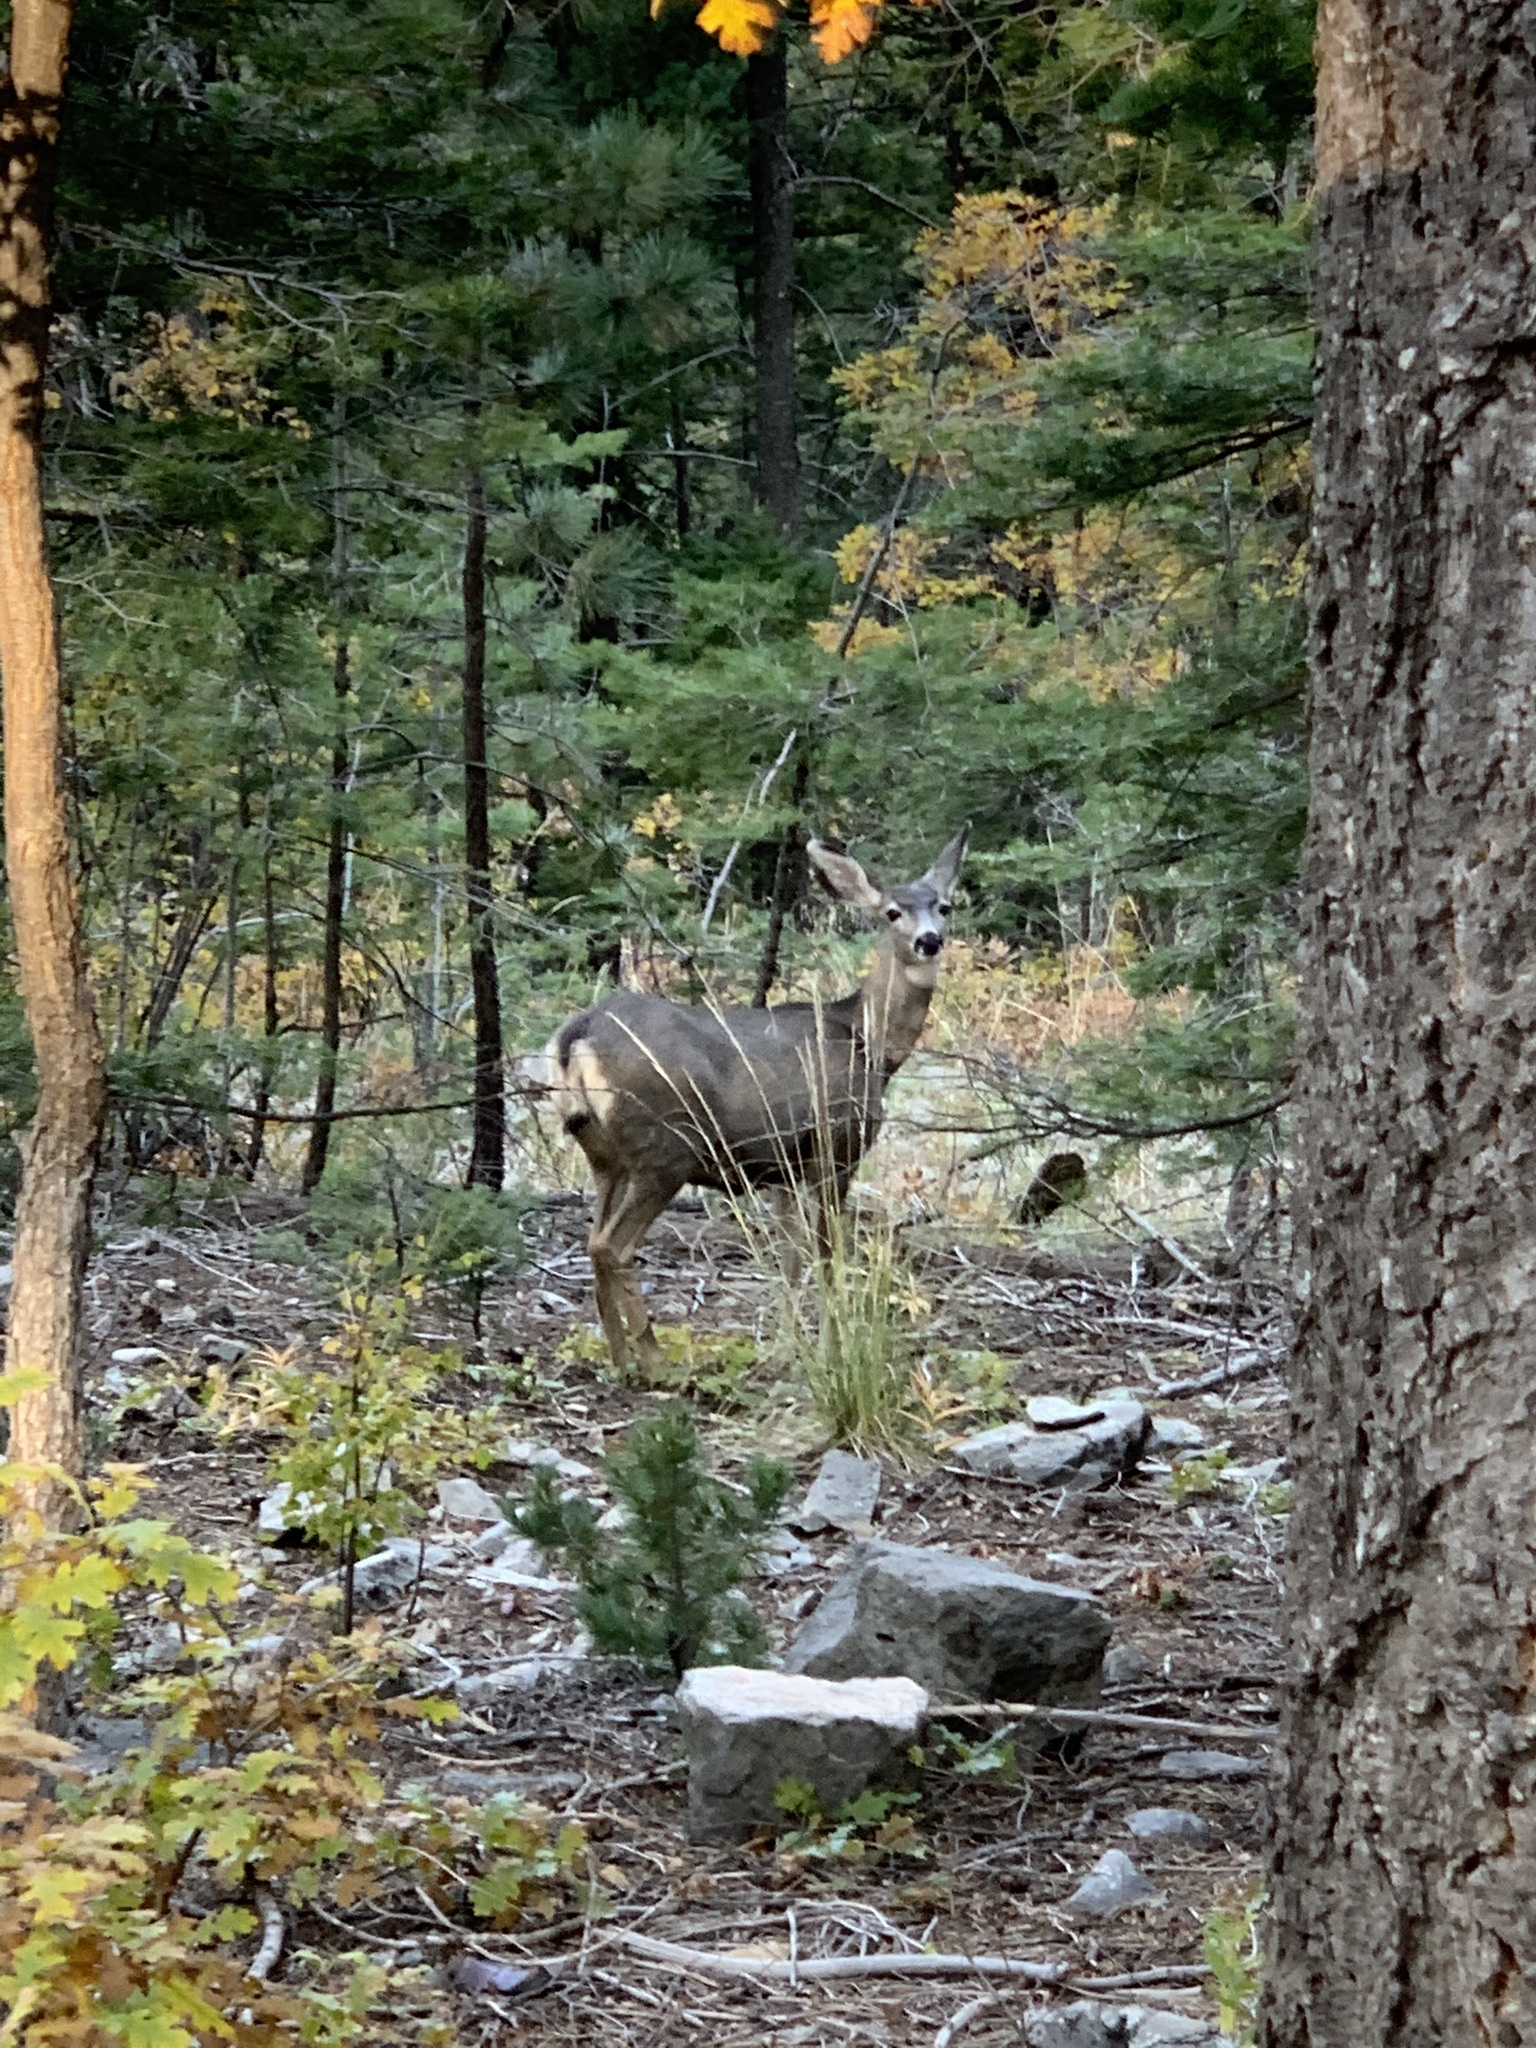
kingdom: Animalia
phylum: Chordata
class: Mammalia
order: Artiodactyla
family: Cervidae
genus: Odocoileus
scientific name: Odocoileus hemionus
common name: Mule deer
